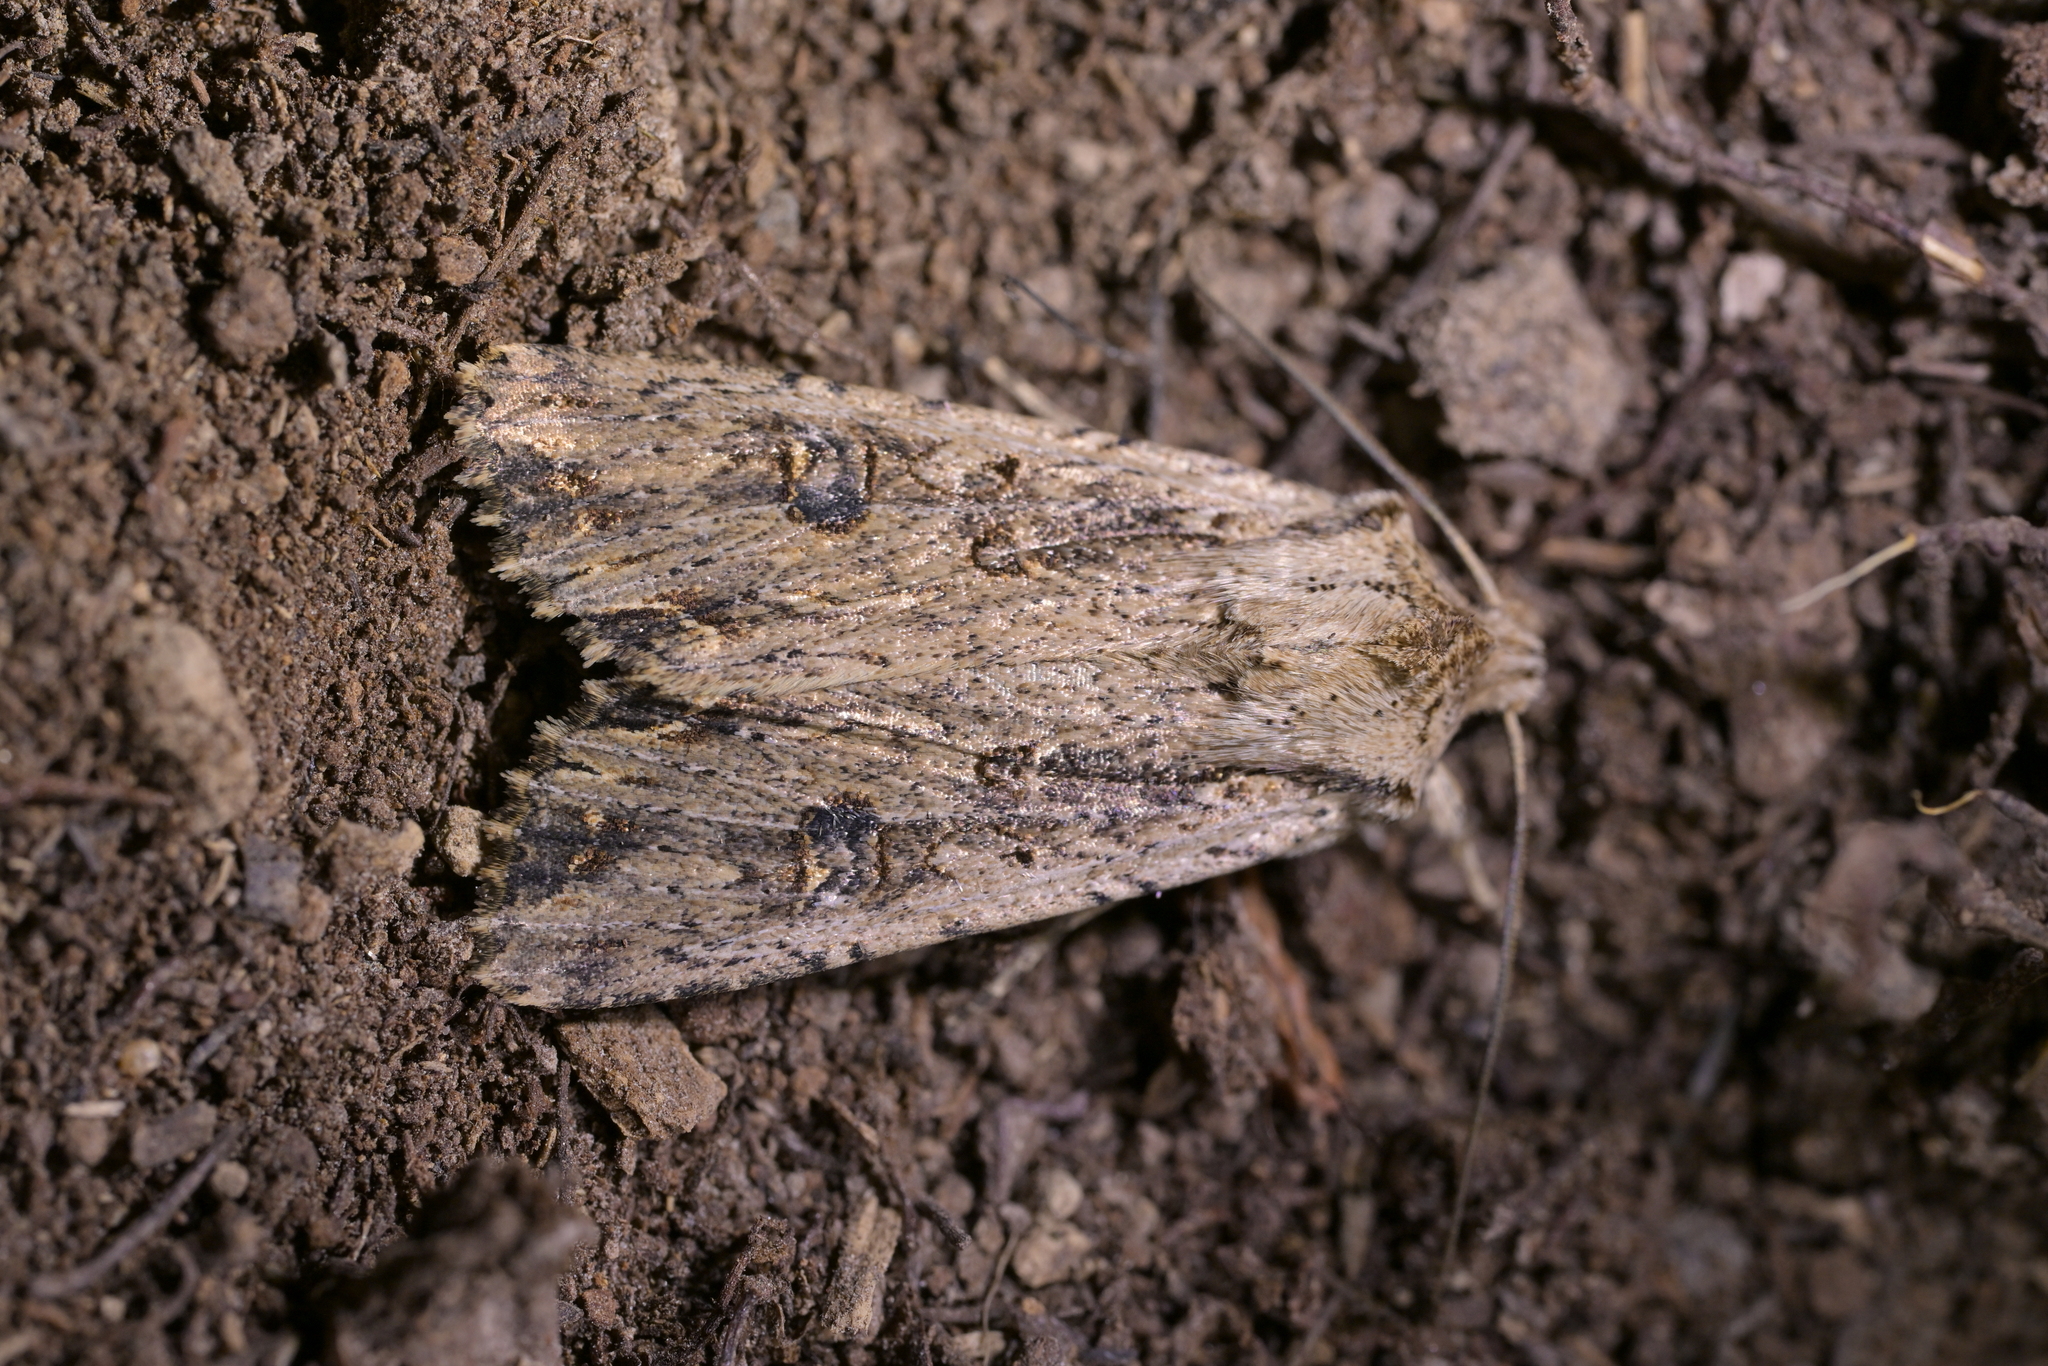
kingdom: Animalia
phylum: Arthropoda
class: Insecta
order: Lepidoptera
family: Noctuidae
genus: Ichneutica
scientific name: Ichneutica lignana
